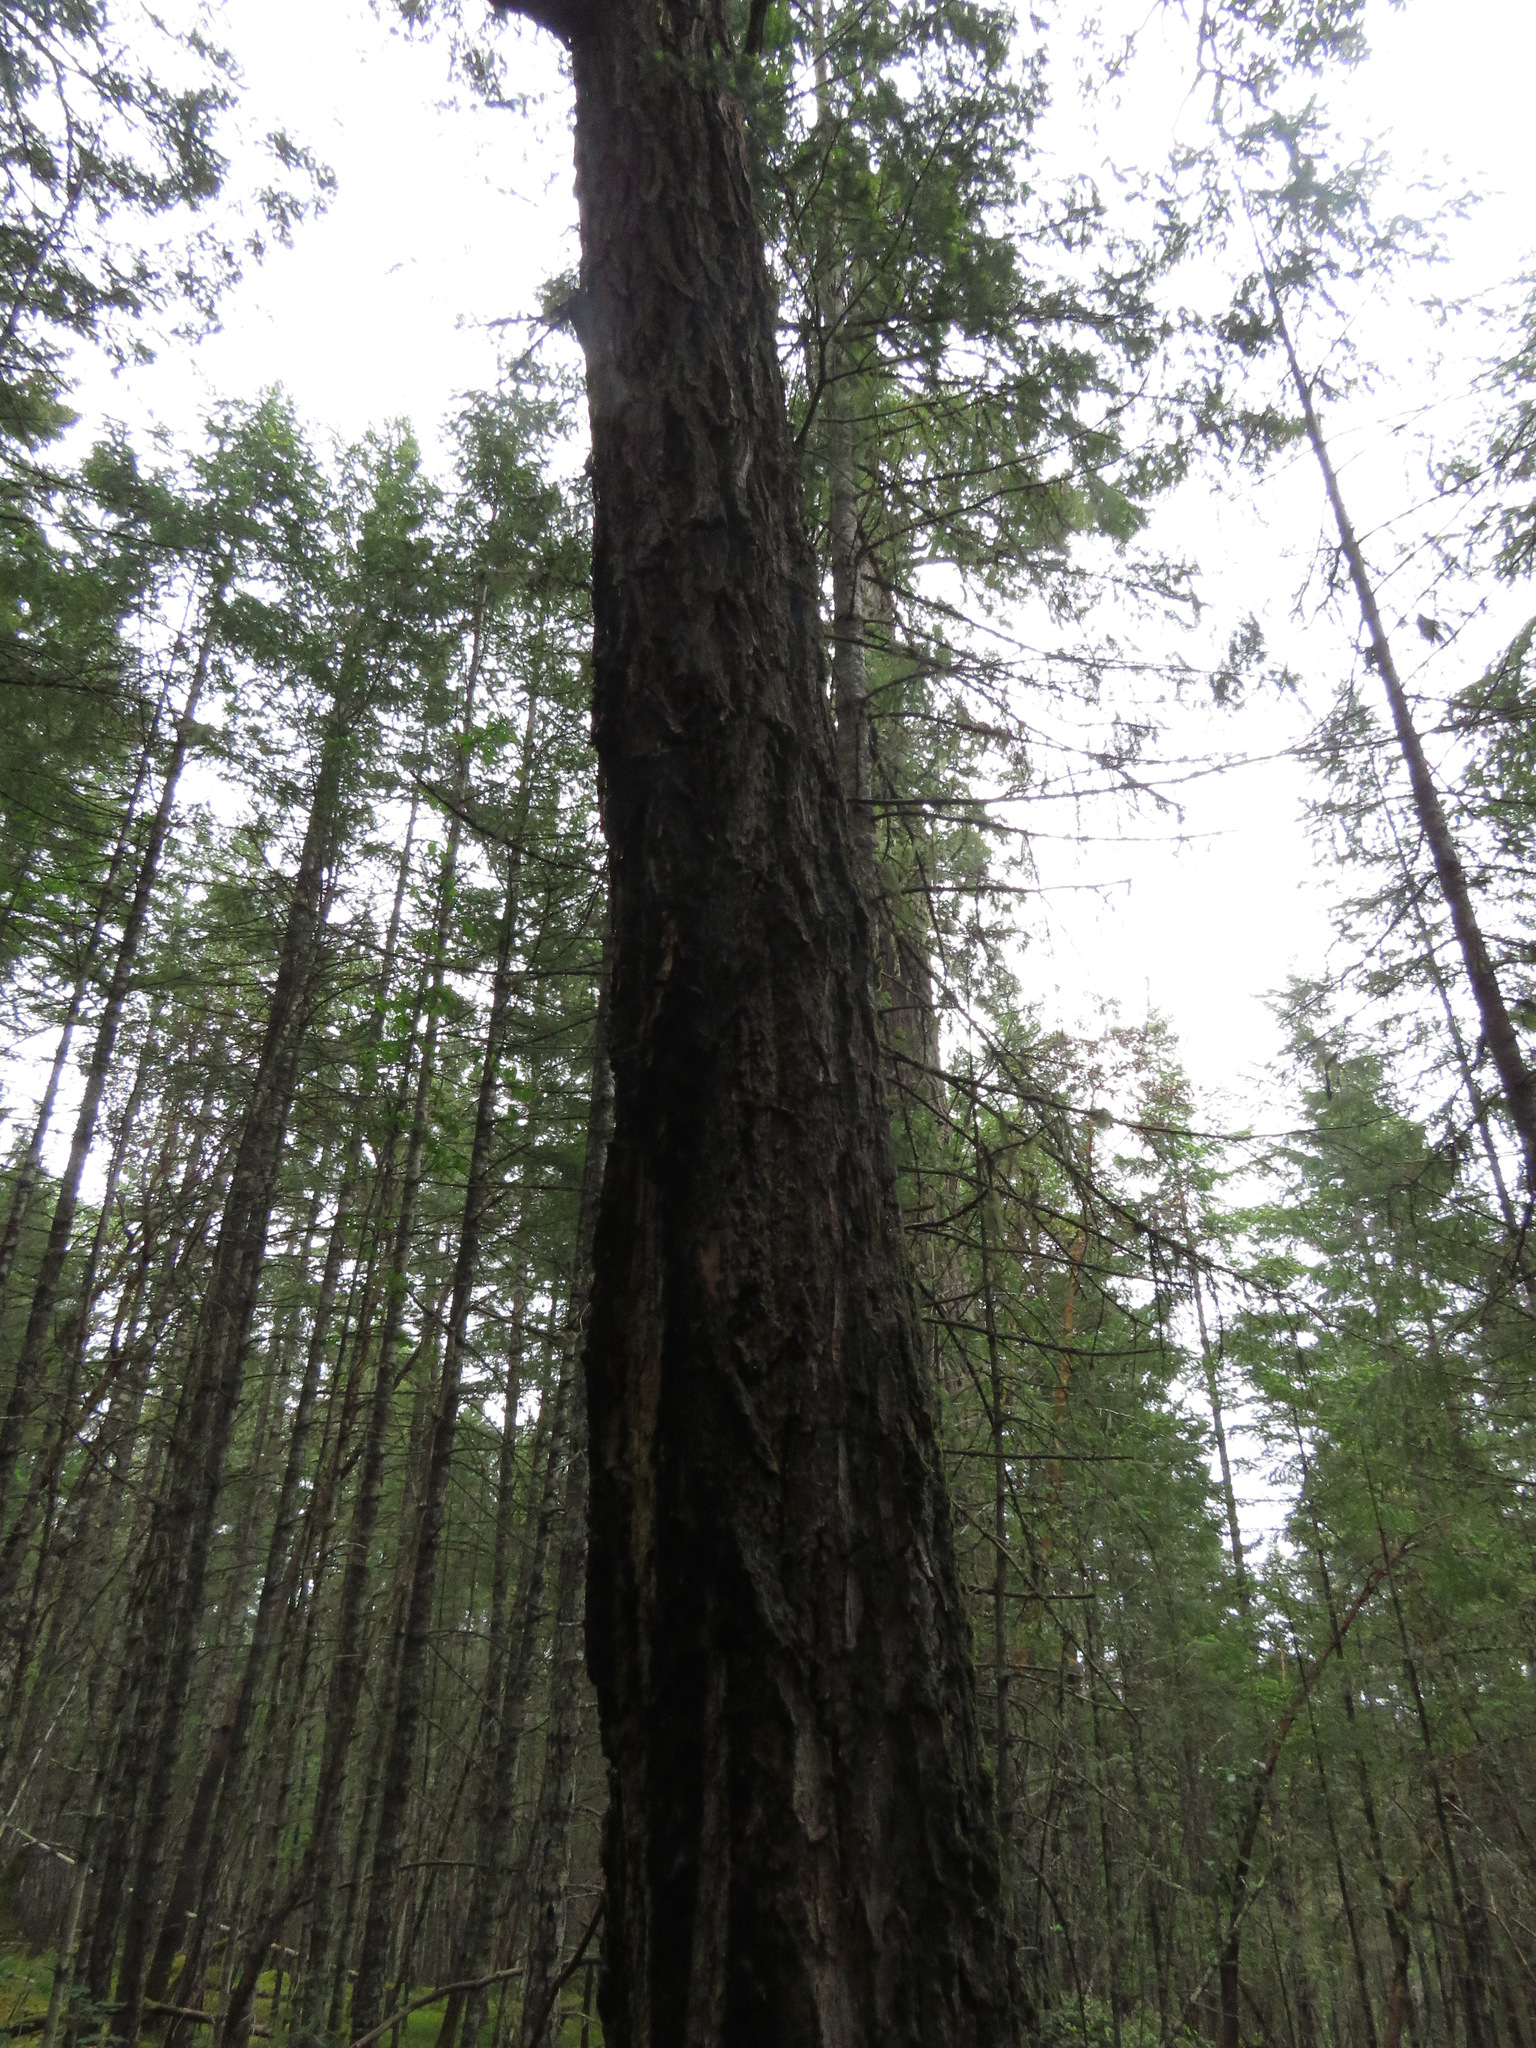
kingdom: Plantae
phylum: Tracheophyta
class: Pinopsida
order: Pinales
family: Pinaceae
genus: Pseudotsuga
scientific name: Pseudotsuga menziesii
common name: Douglas fir
